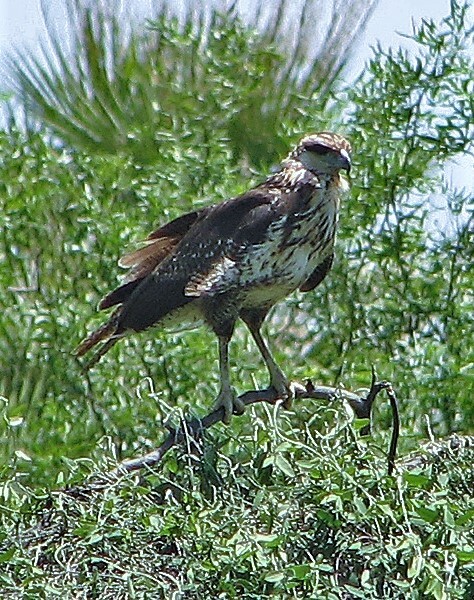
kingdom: Animalia
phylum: Chordata
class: Aves
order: Accipitriformes
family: Accipitridae
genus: Buteogallus
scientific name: Buteogallus meridionalis
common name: Savanna hawk
